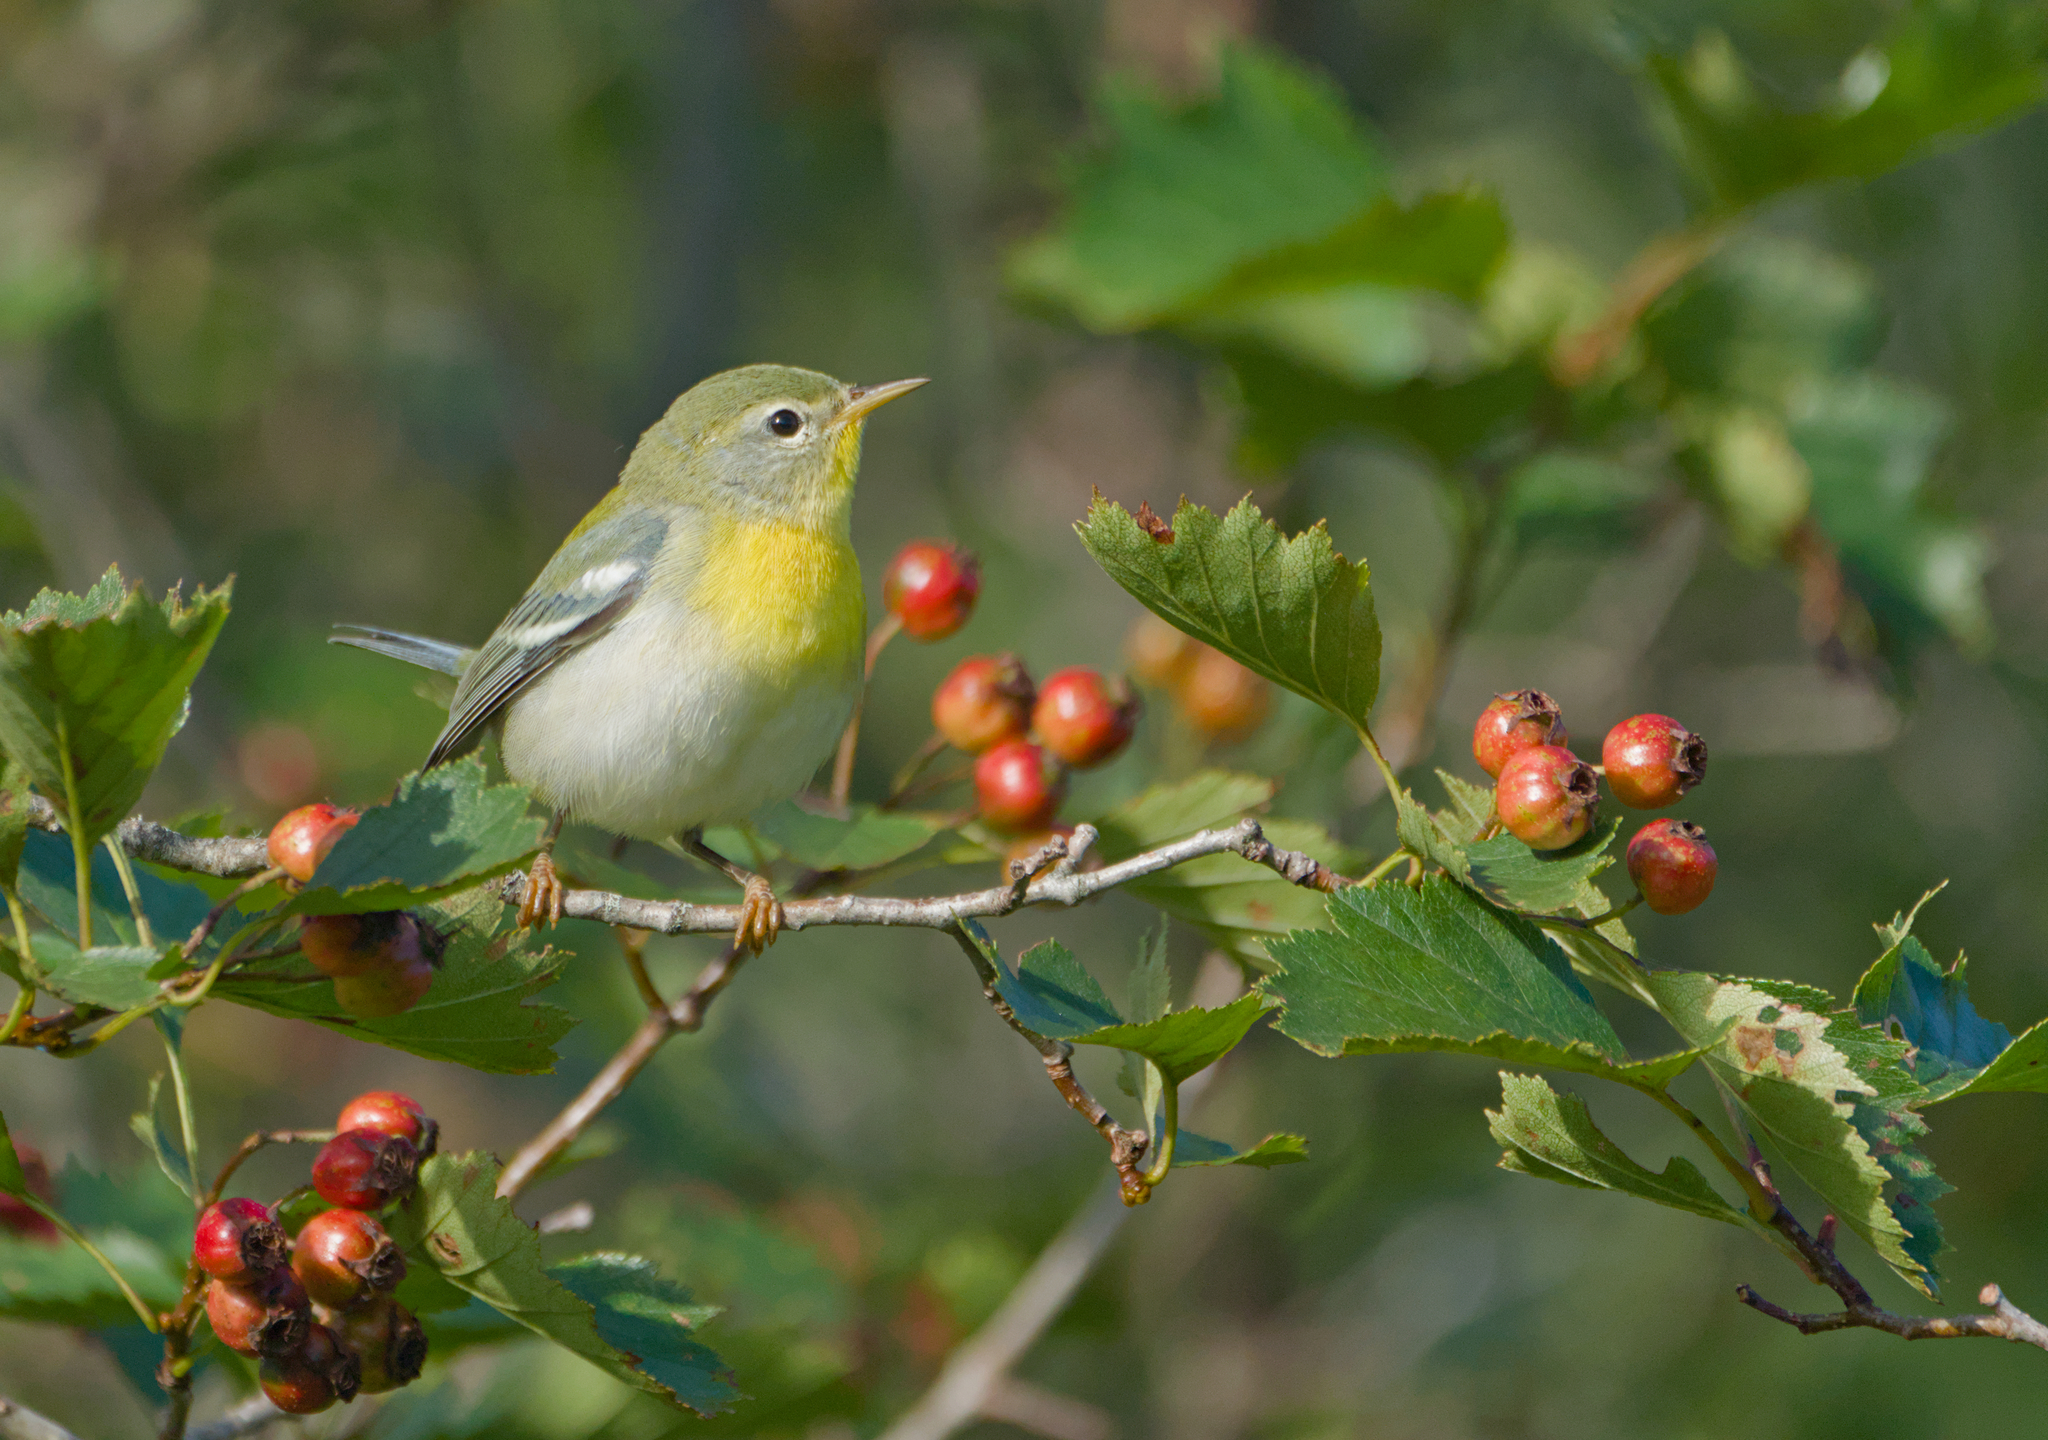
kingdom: Animalia
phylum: Chordata
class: Aves
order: Passeriformes
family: Parulidae
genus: Setophaga
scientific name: Setophaga americana
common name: Northern parula
